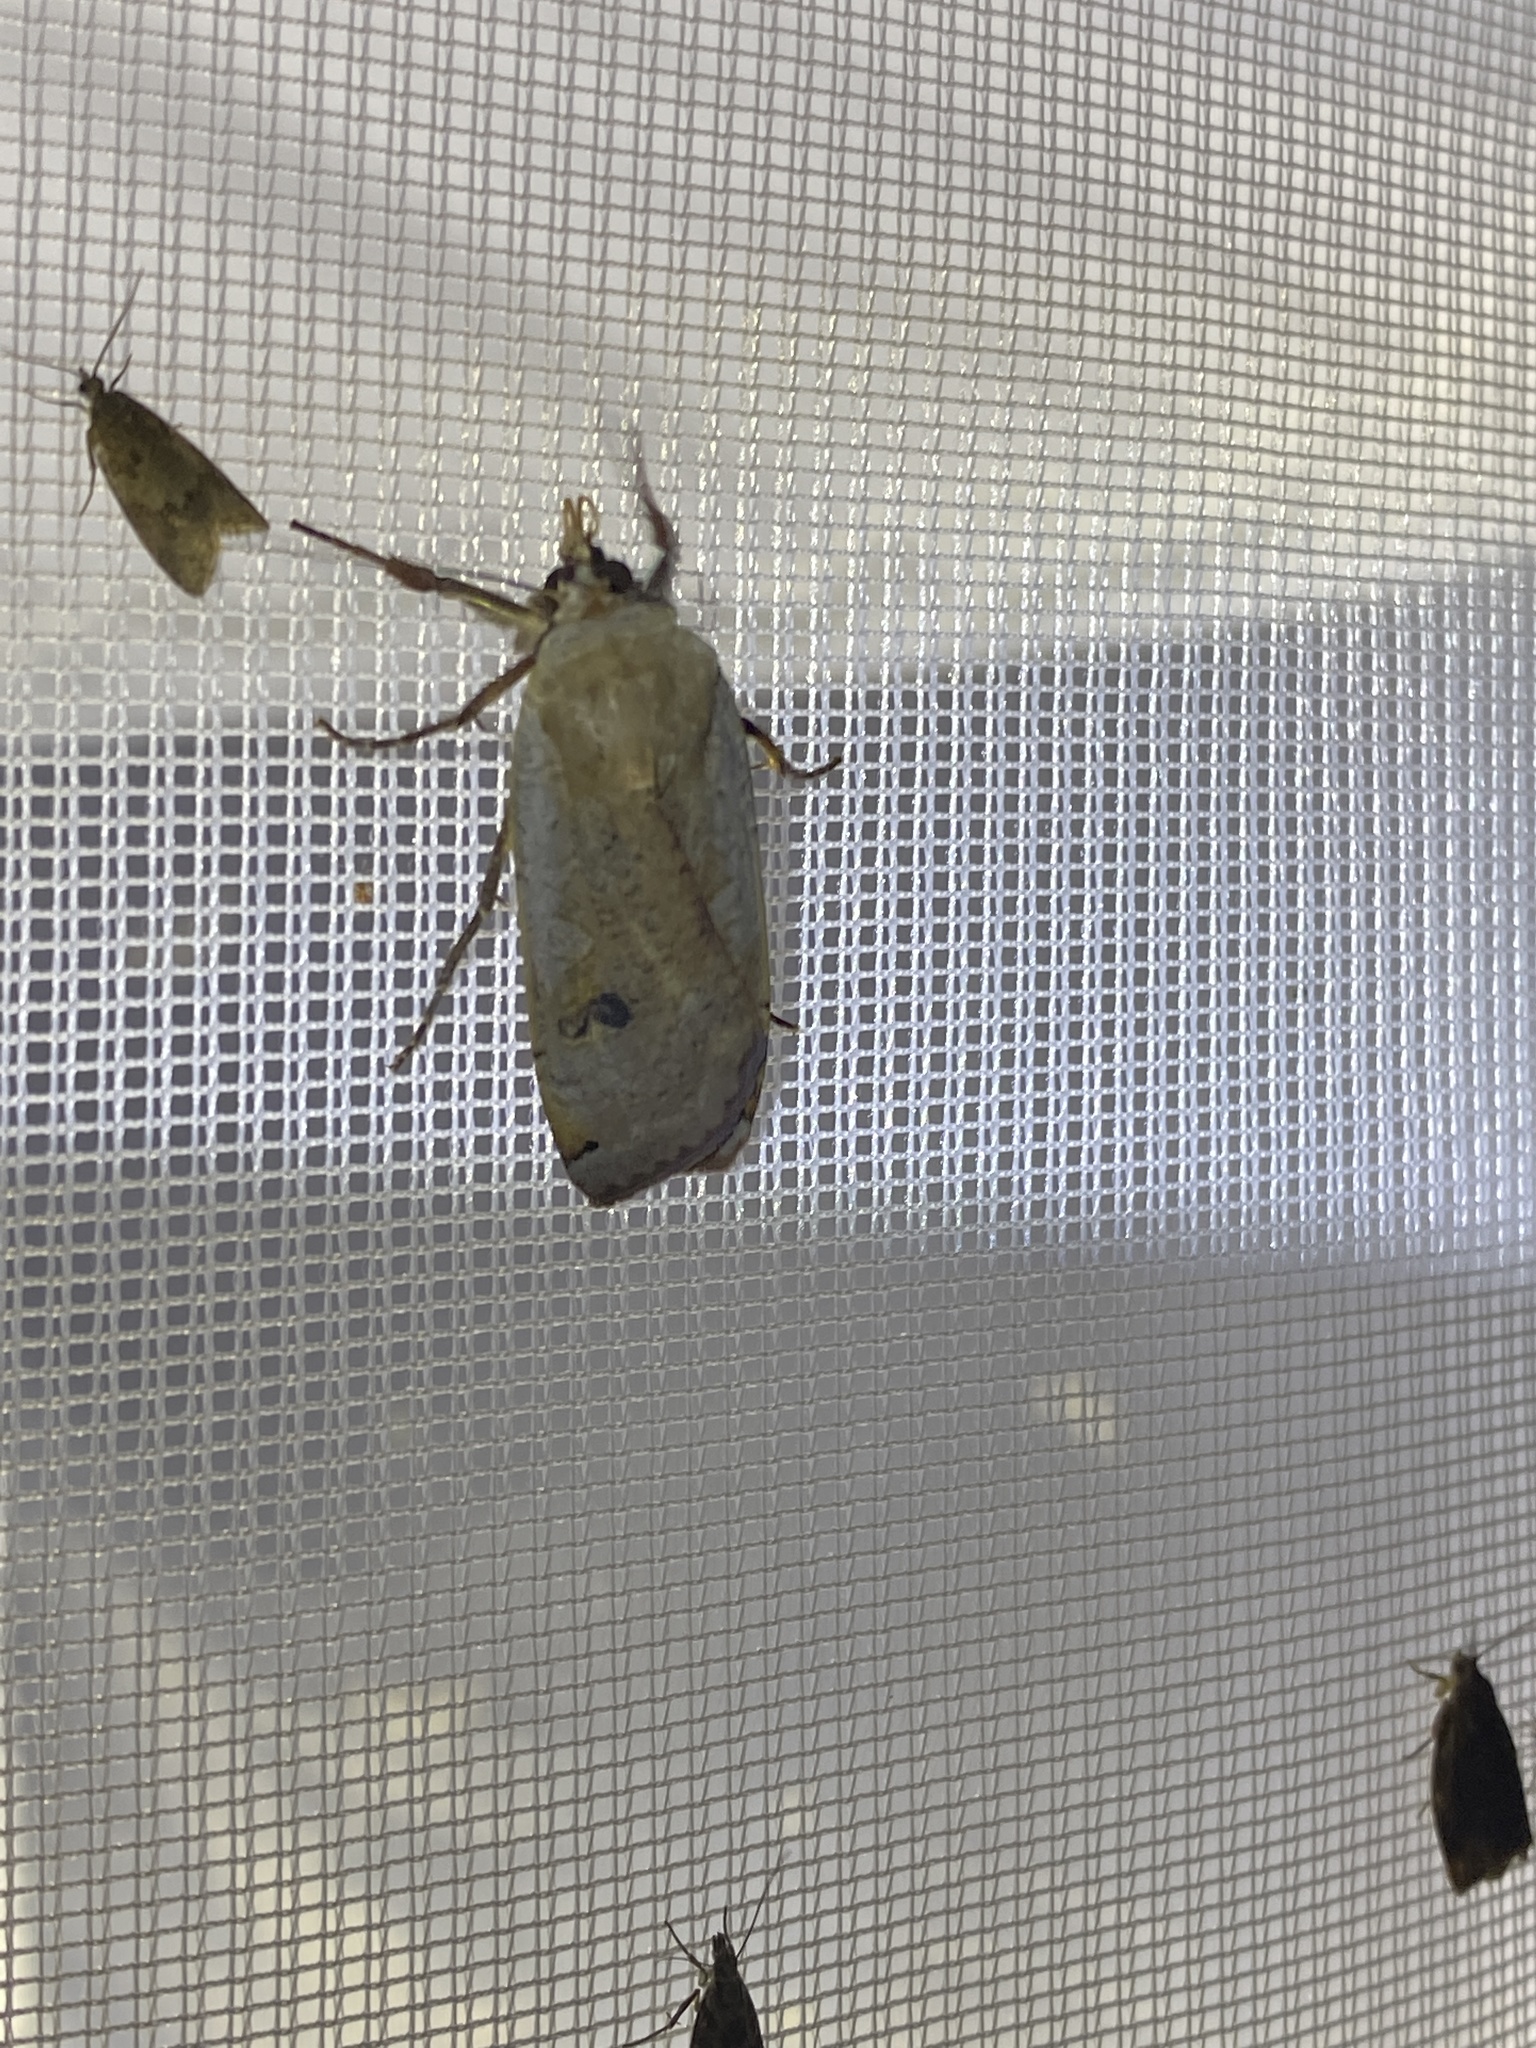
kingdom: Animalia
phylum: Arthropoda
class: Insecta
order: Lepidoptera
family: Noctuidae
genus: Noctua
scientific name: Noctua pronuba
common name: Large yellow underwing
